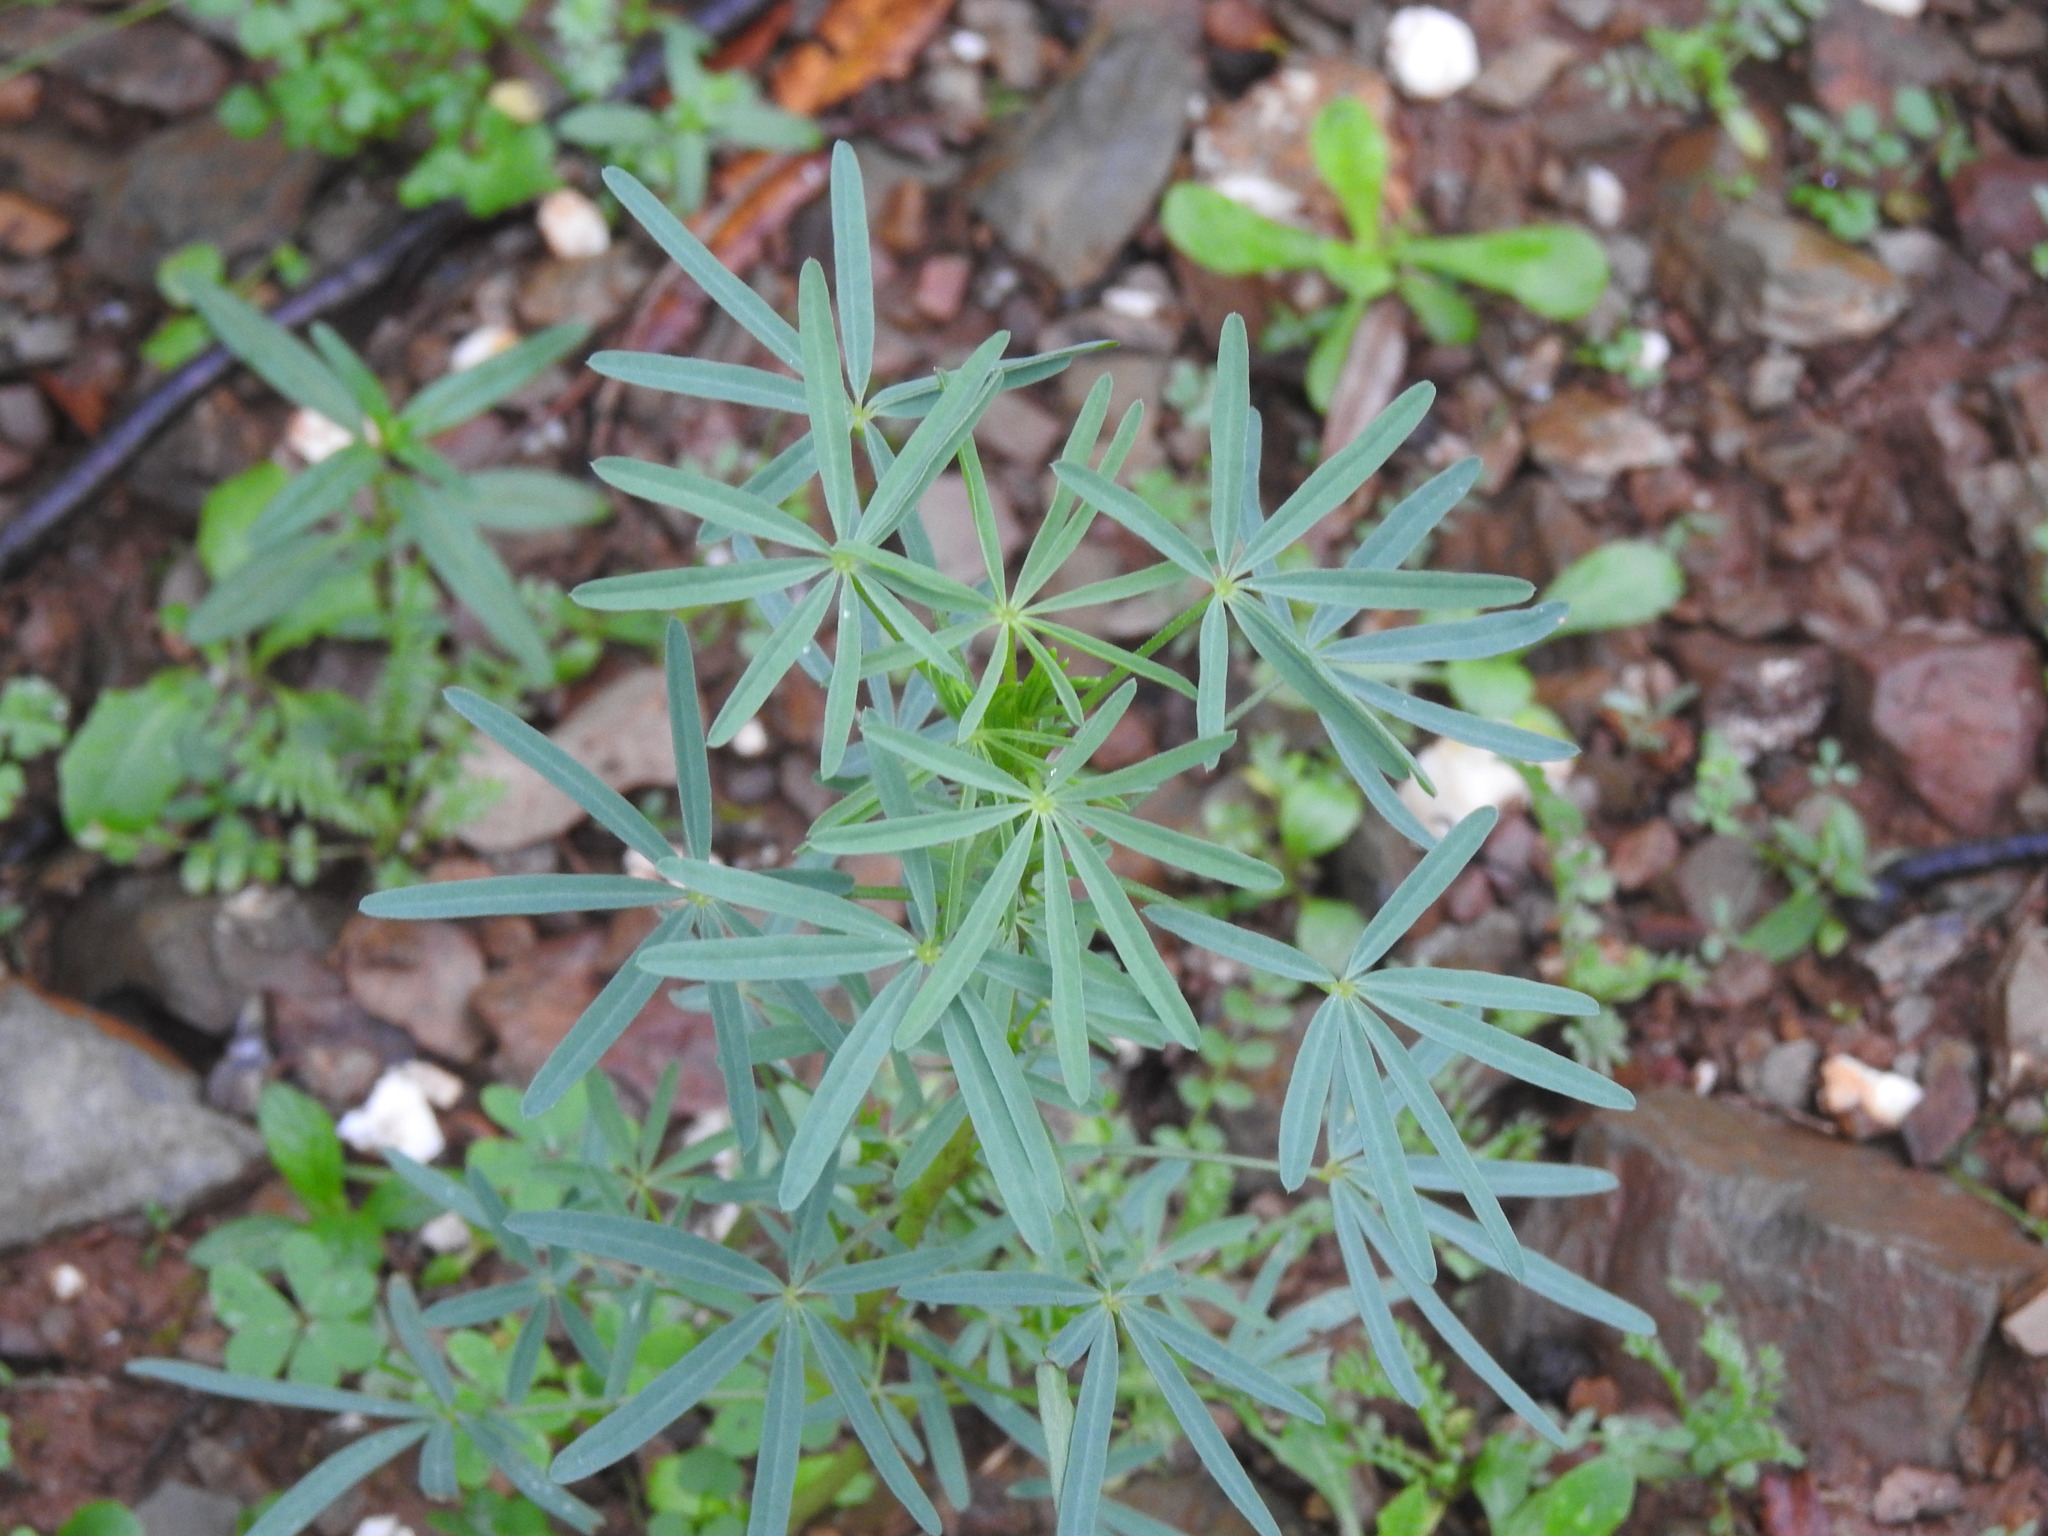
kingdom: Plantae
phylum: Tracheophyta
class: Magnoliopsida
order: Fabales
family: Fabaceae
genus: Lupinus
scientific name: Lupinus angustifolius
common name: Narrow-leaved lupin
